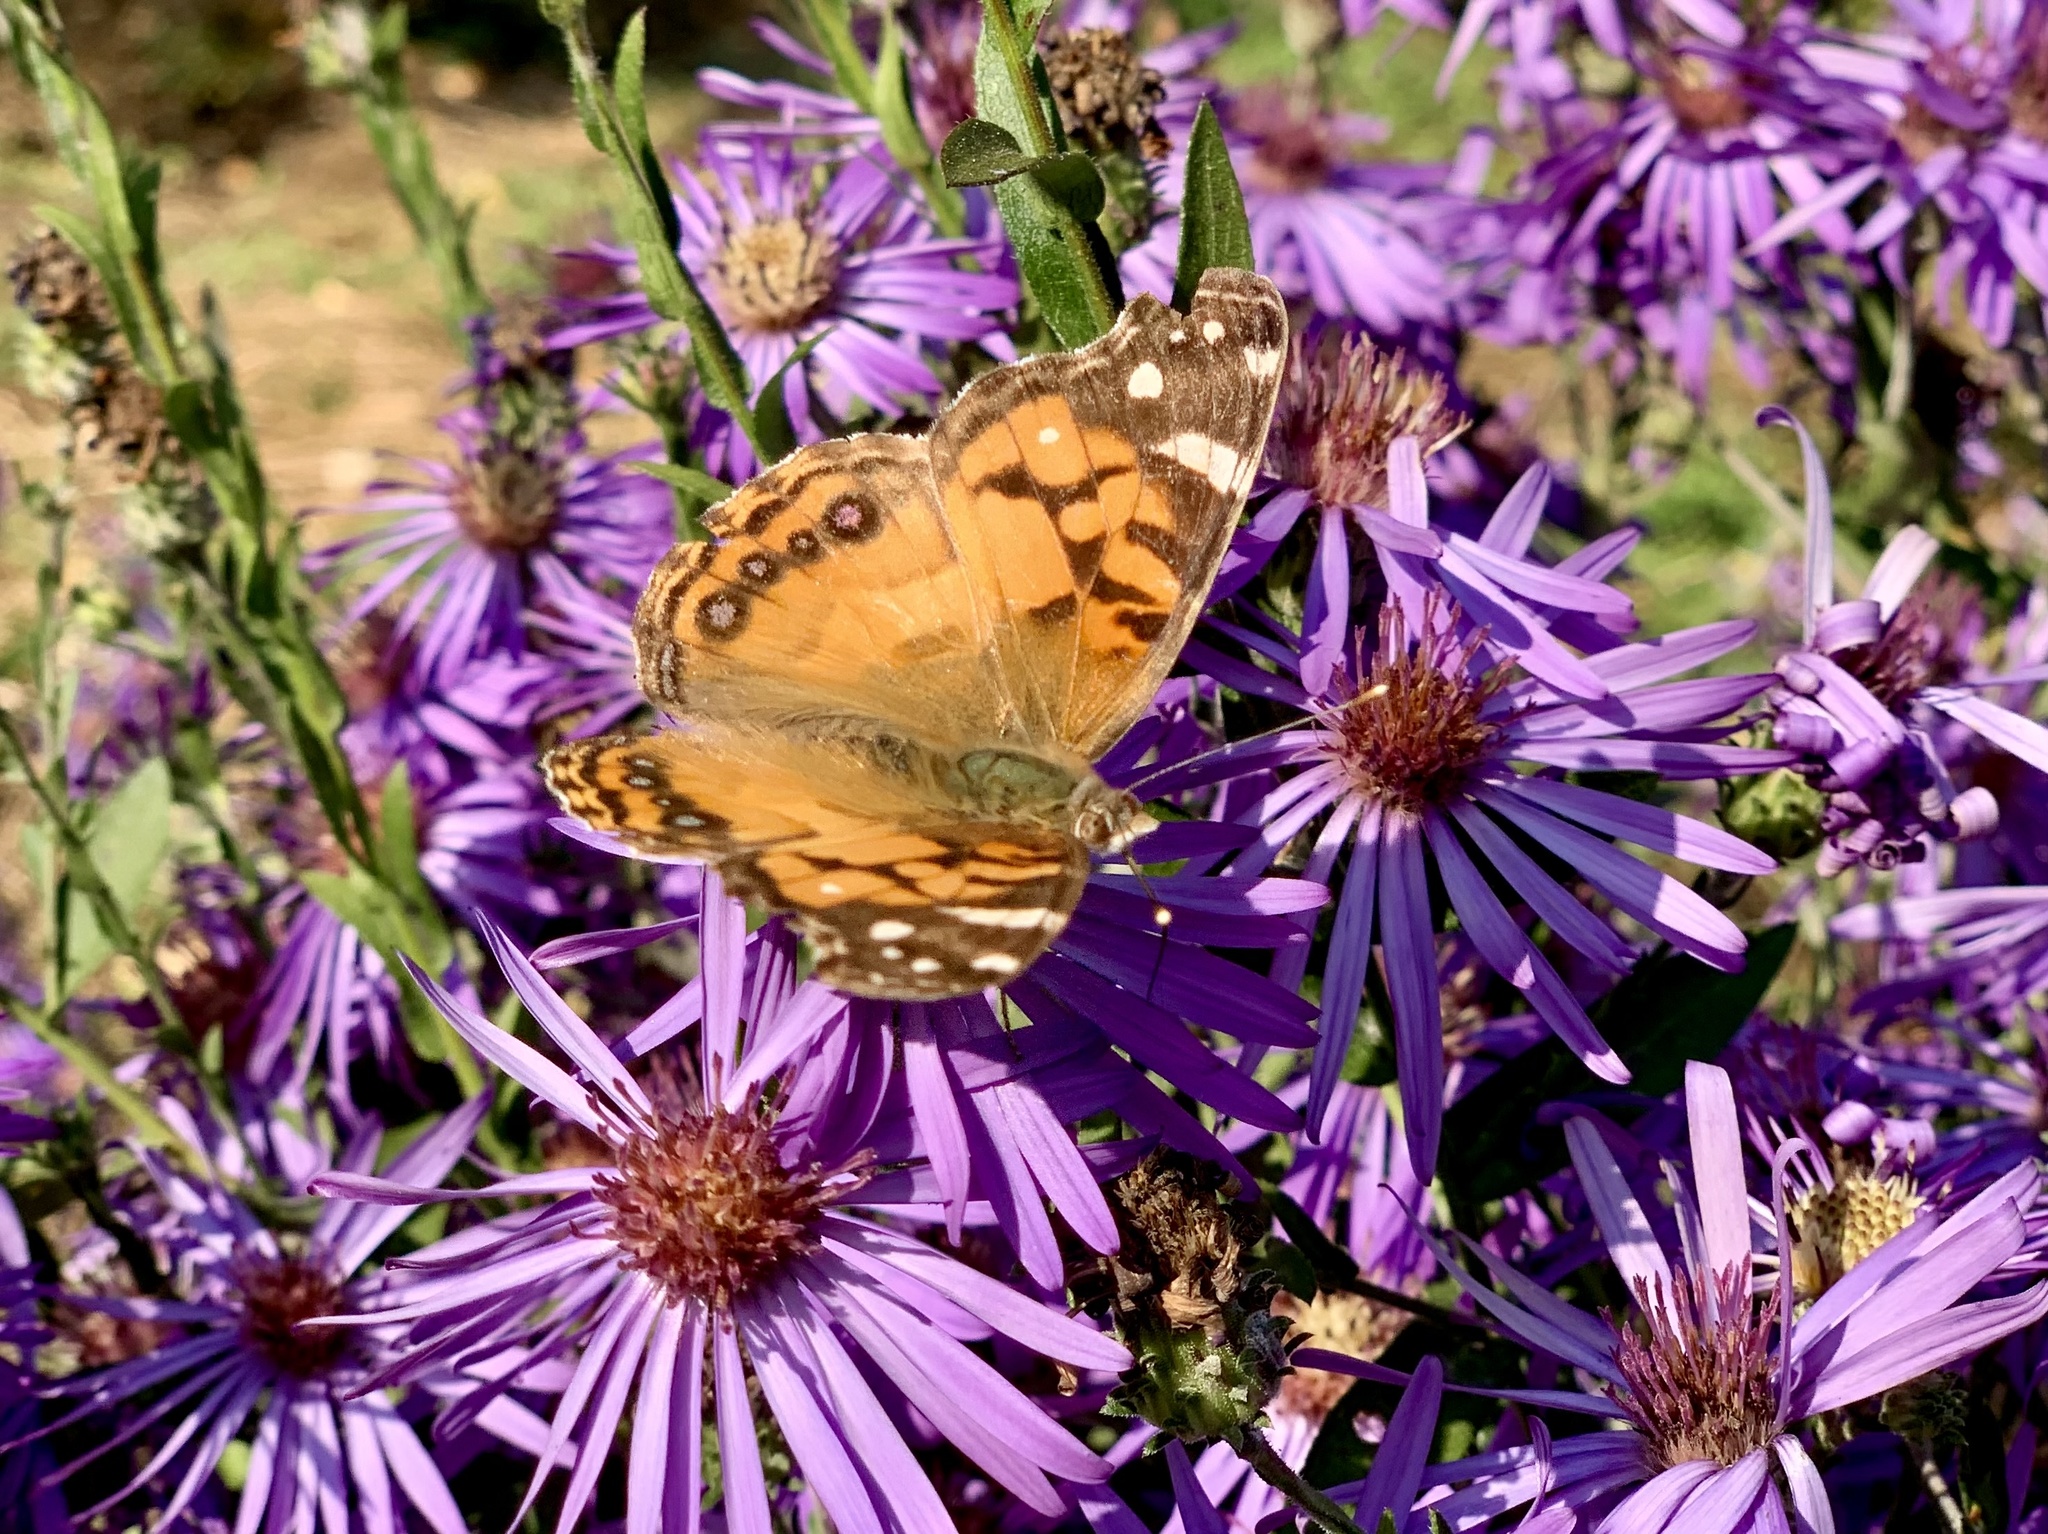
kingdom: Animalia
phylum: Arthropoda
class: Insecta
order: Lepidoptera
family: Nymphalidae
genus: Vanessa
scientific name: Vanessa virginiensis
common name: American lady
